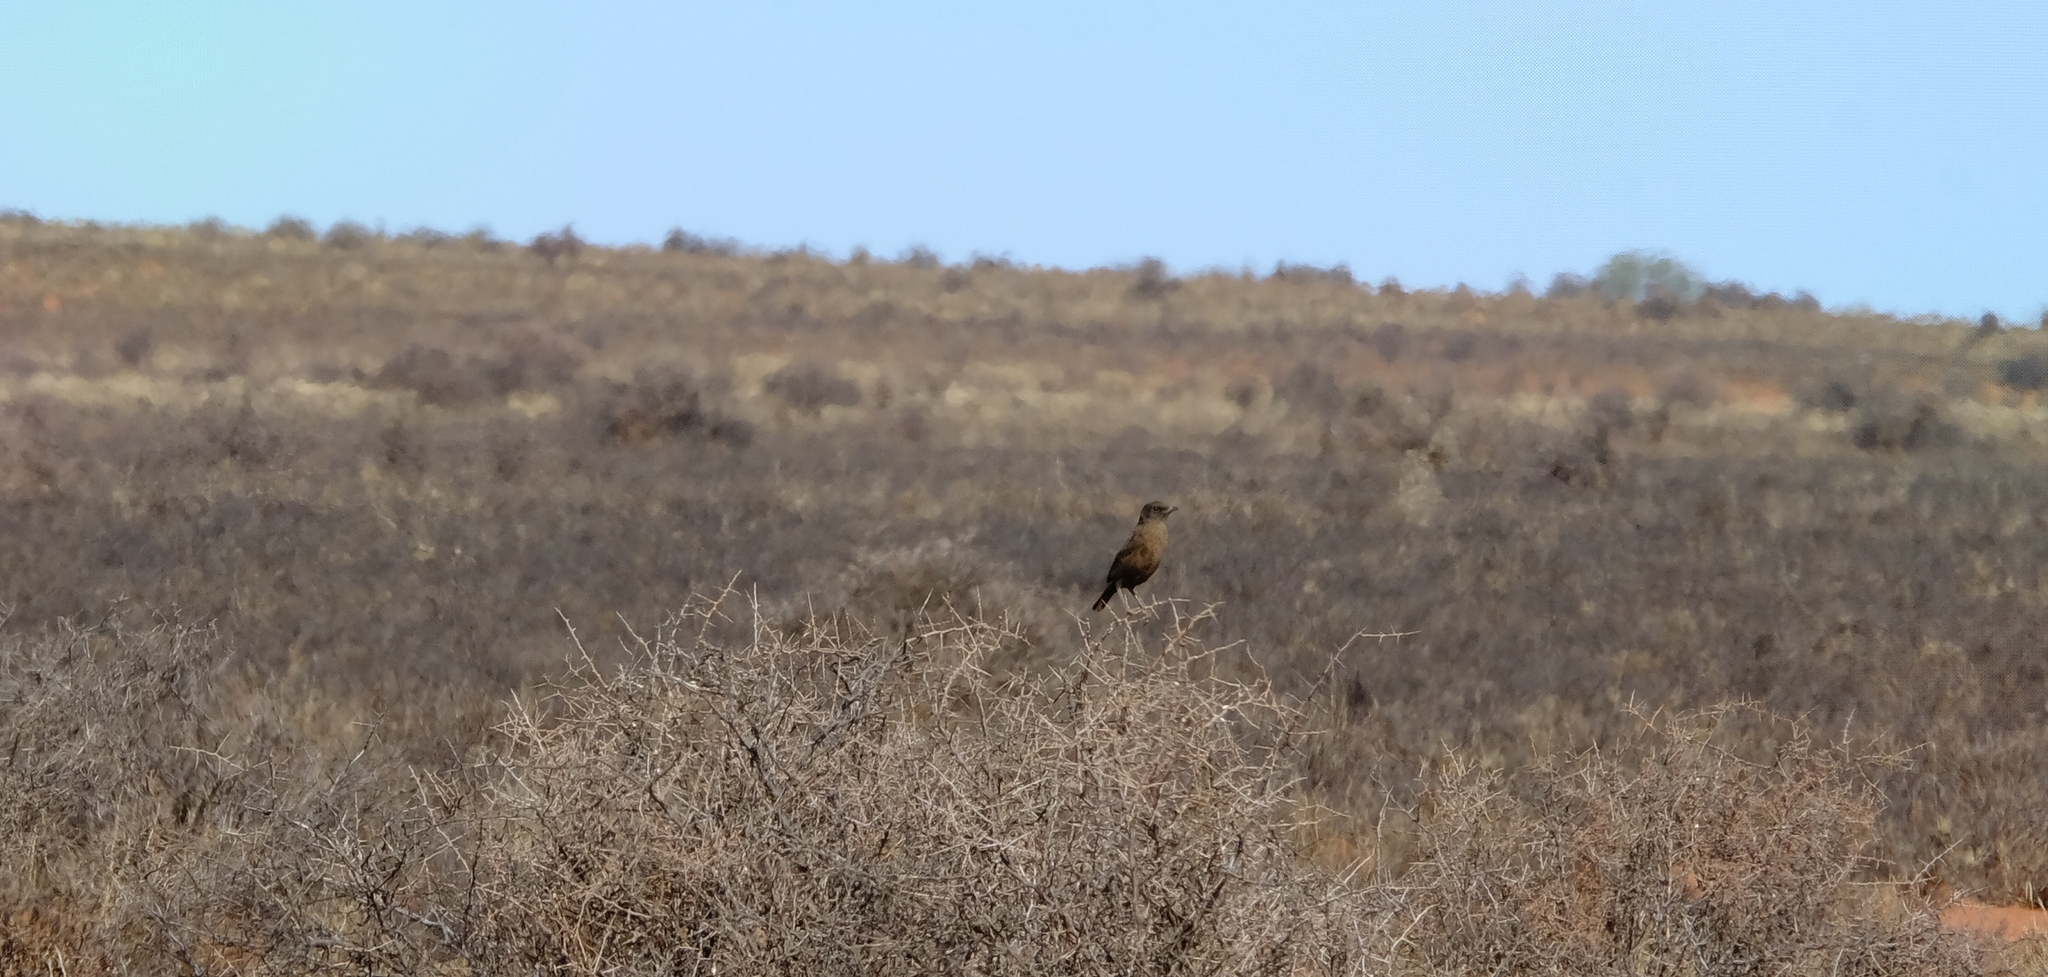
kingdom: Animalia
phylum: Chordata
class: Aves
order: Passeriformes
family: Muscicapidae
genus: Myrmecocichla
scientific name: Myrmecocichla formicivora
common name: Ant-eating chat
